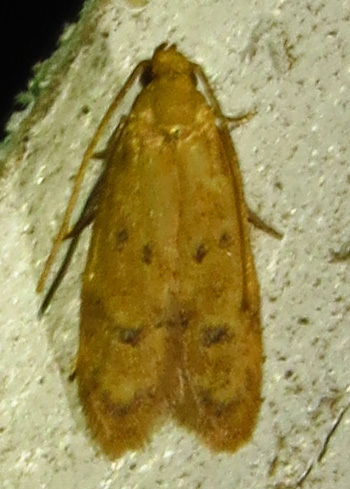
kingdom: Animalia
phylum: Arthropoda
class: Insecta
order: Lepidoptera
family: Autostichidae
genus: Gerdana
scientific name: Gerdana caritella
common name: Gerdana moth
